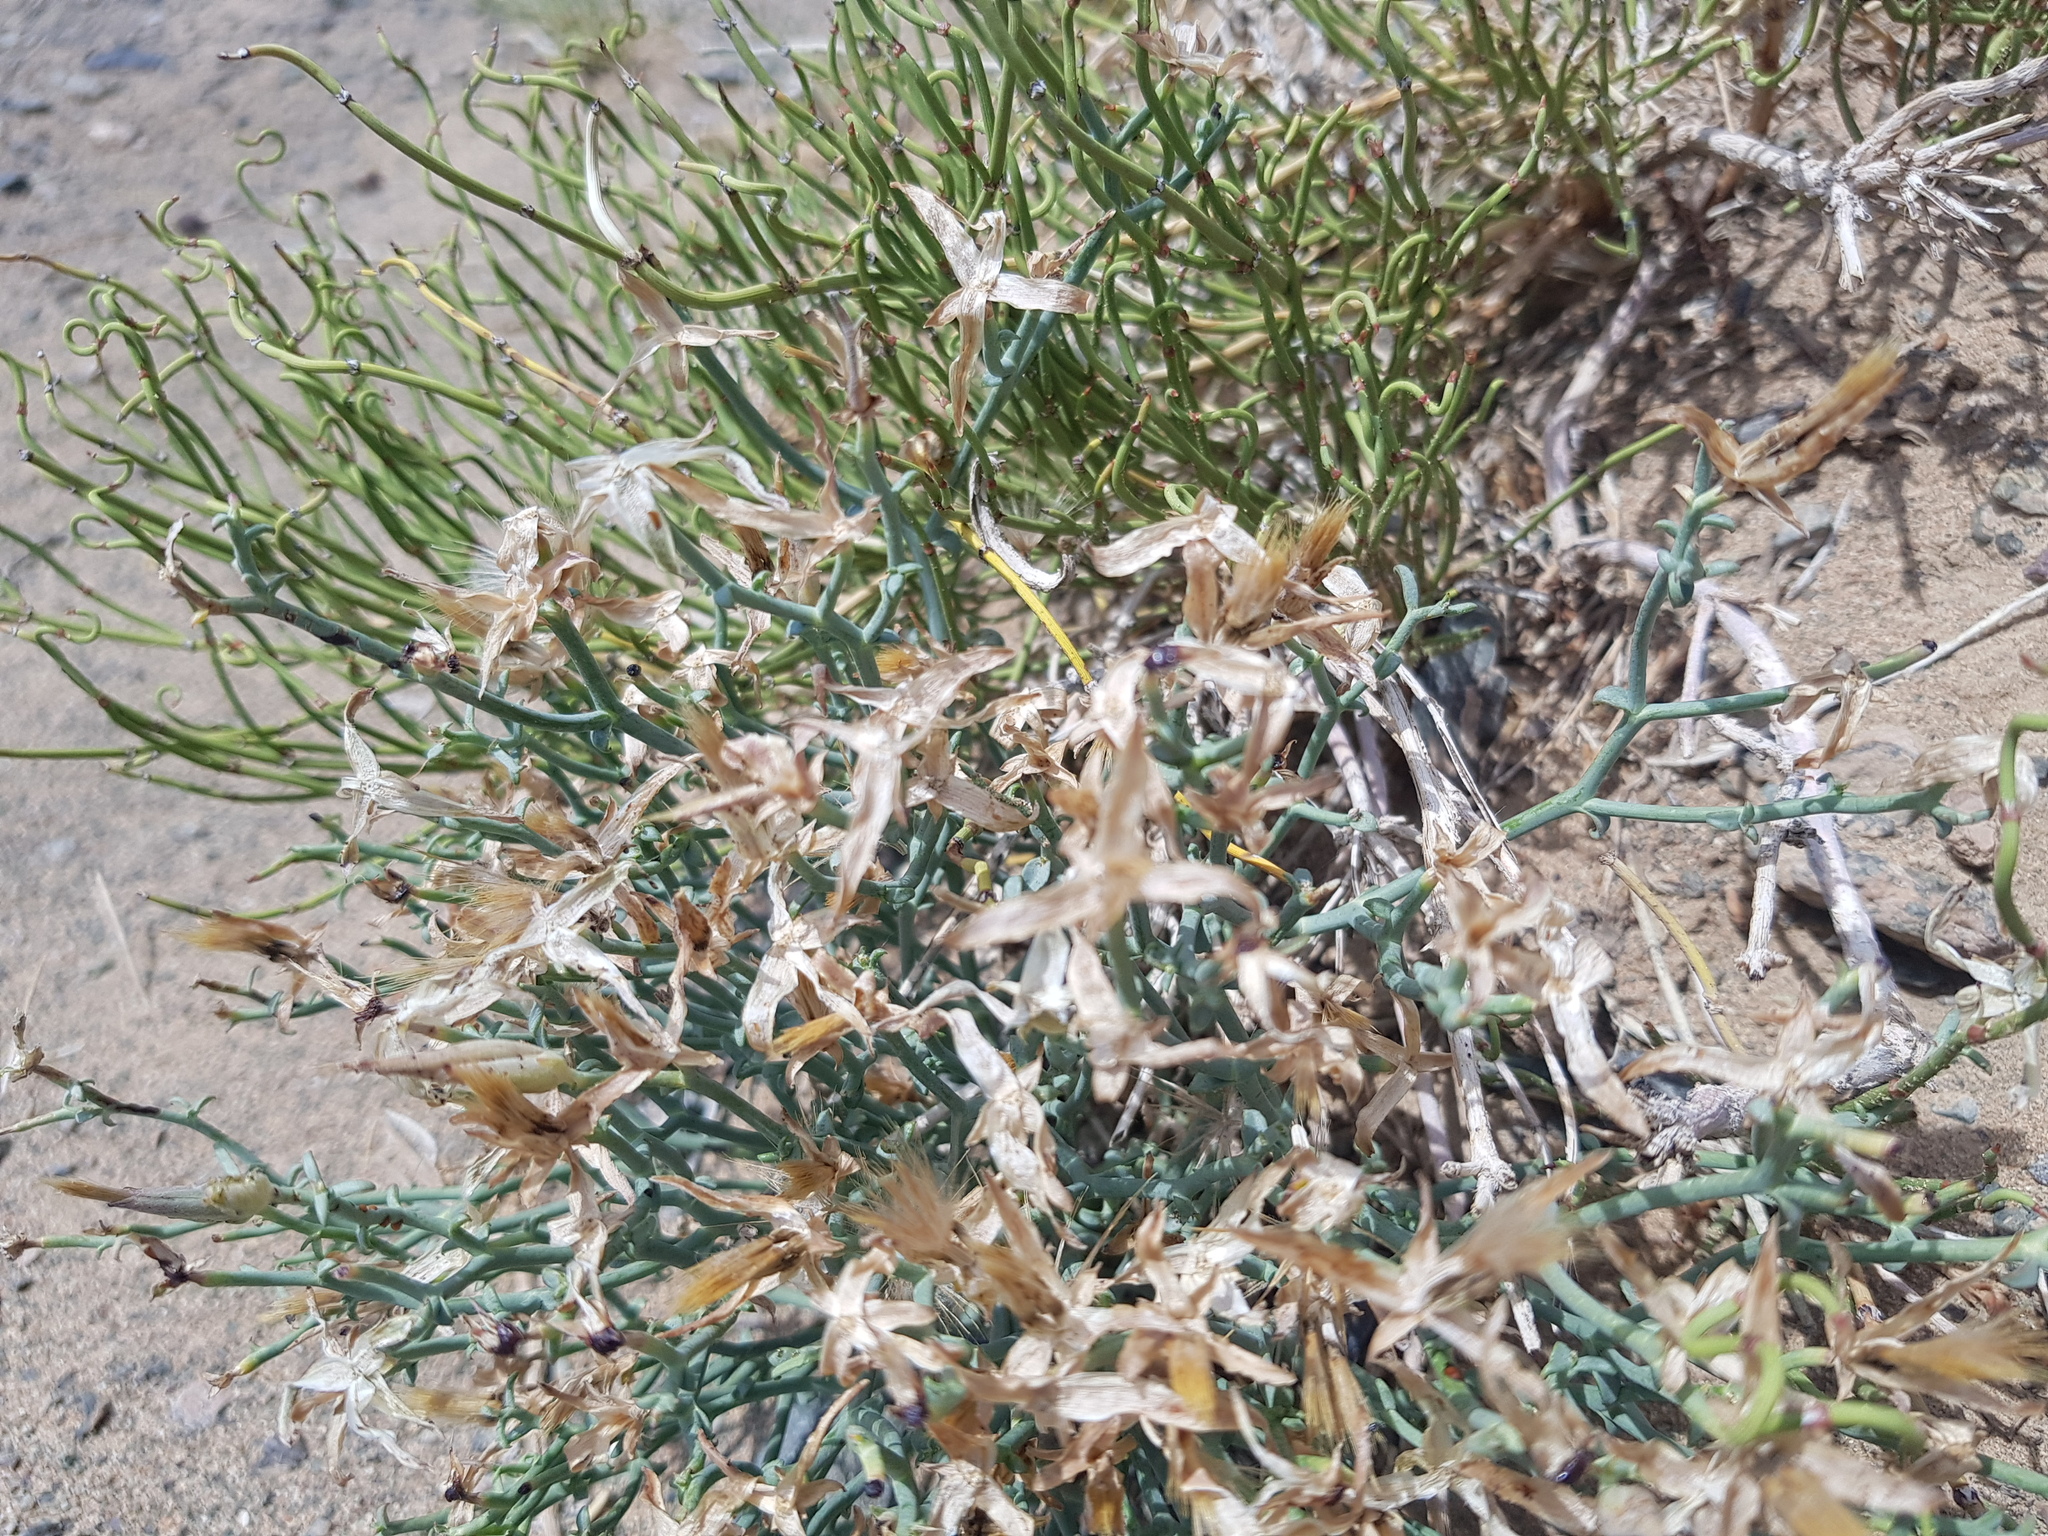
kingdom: Plantae
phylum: Tracheophyta
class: Magnoliopsida
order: Asterales
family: Asteraceae
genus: Takhtajaniantha
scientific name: Takhtajaniantha pseudodivaricata
